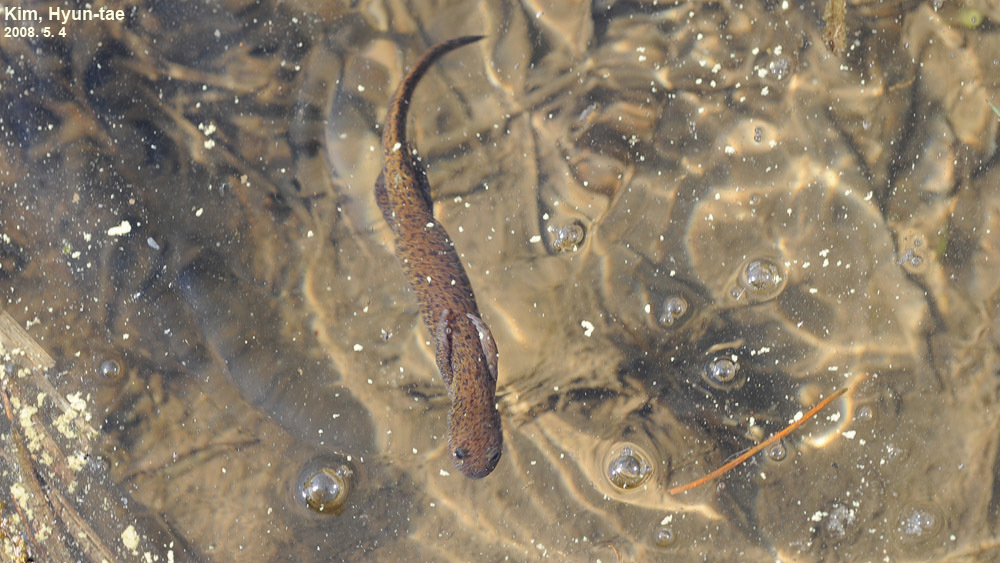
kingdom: Animalia
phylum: Chordata
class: Amphibia
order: Caudata
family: Hynobiidae
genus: Hynobius
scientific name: Hynobius leechii
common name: Gensan salamander
